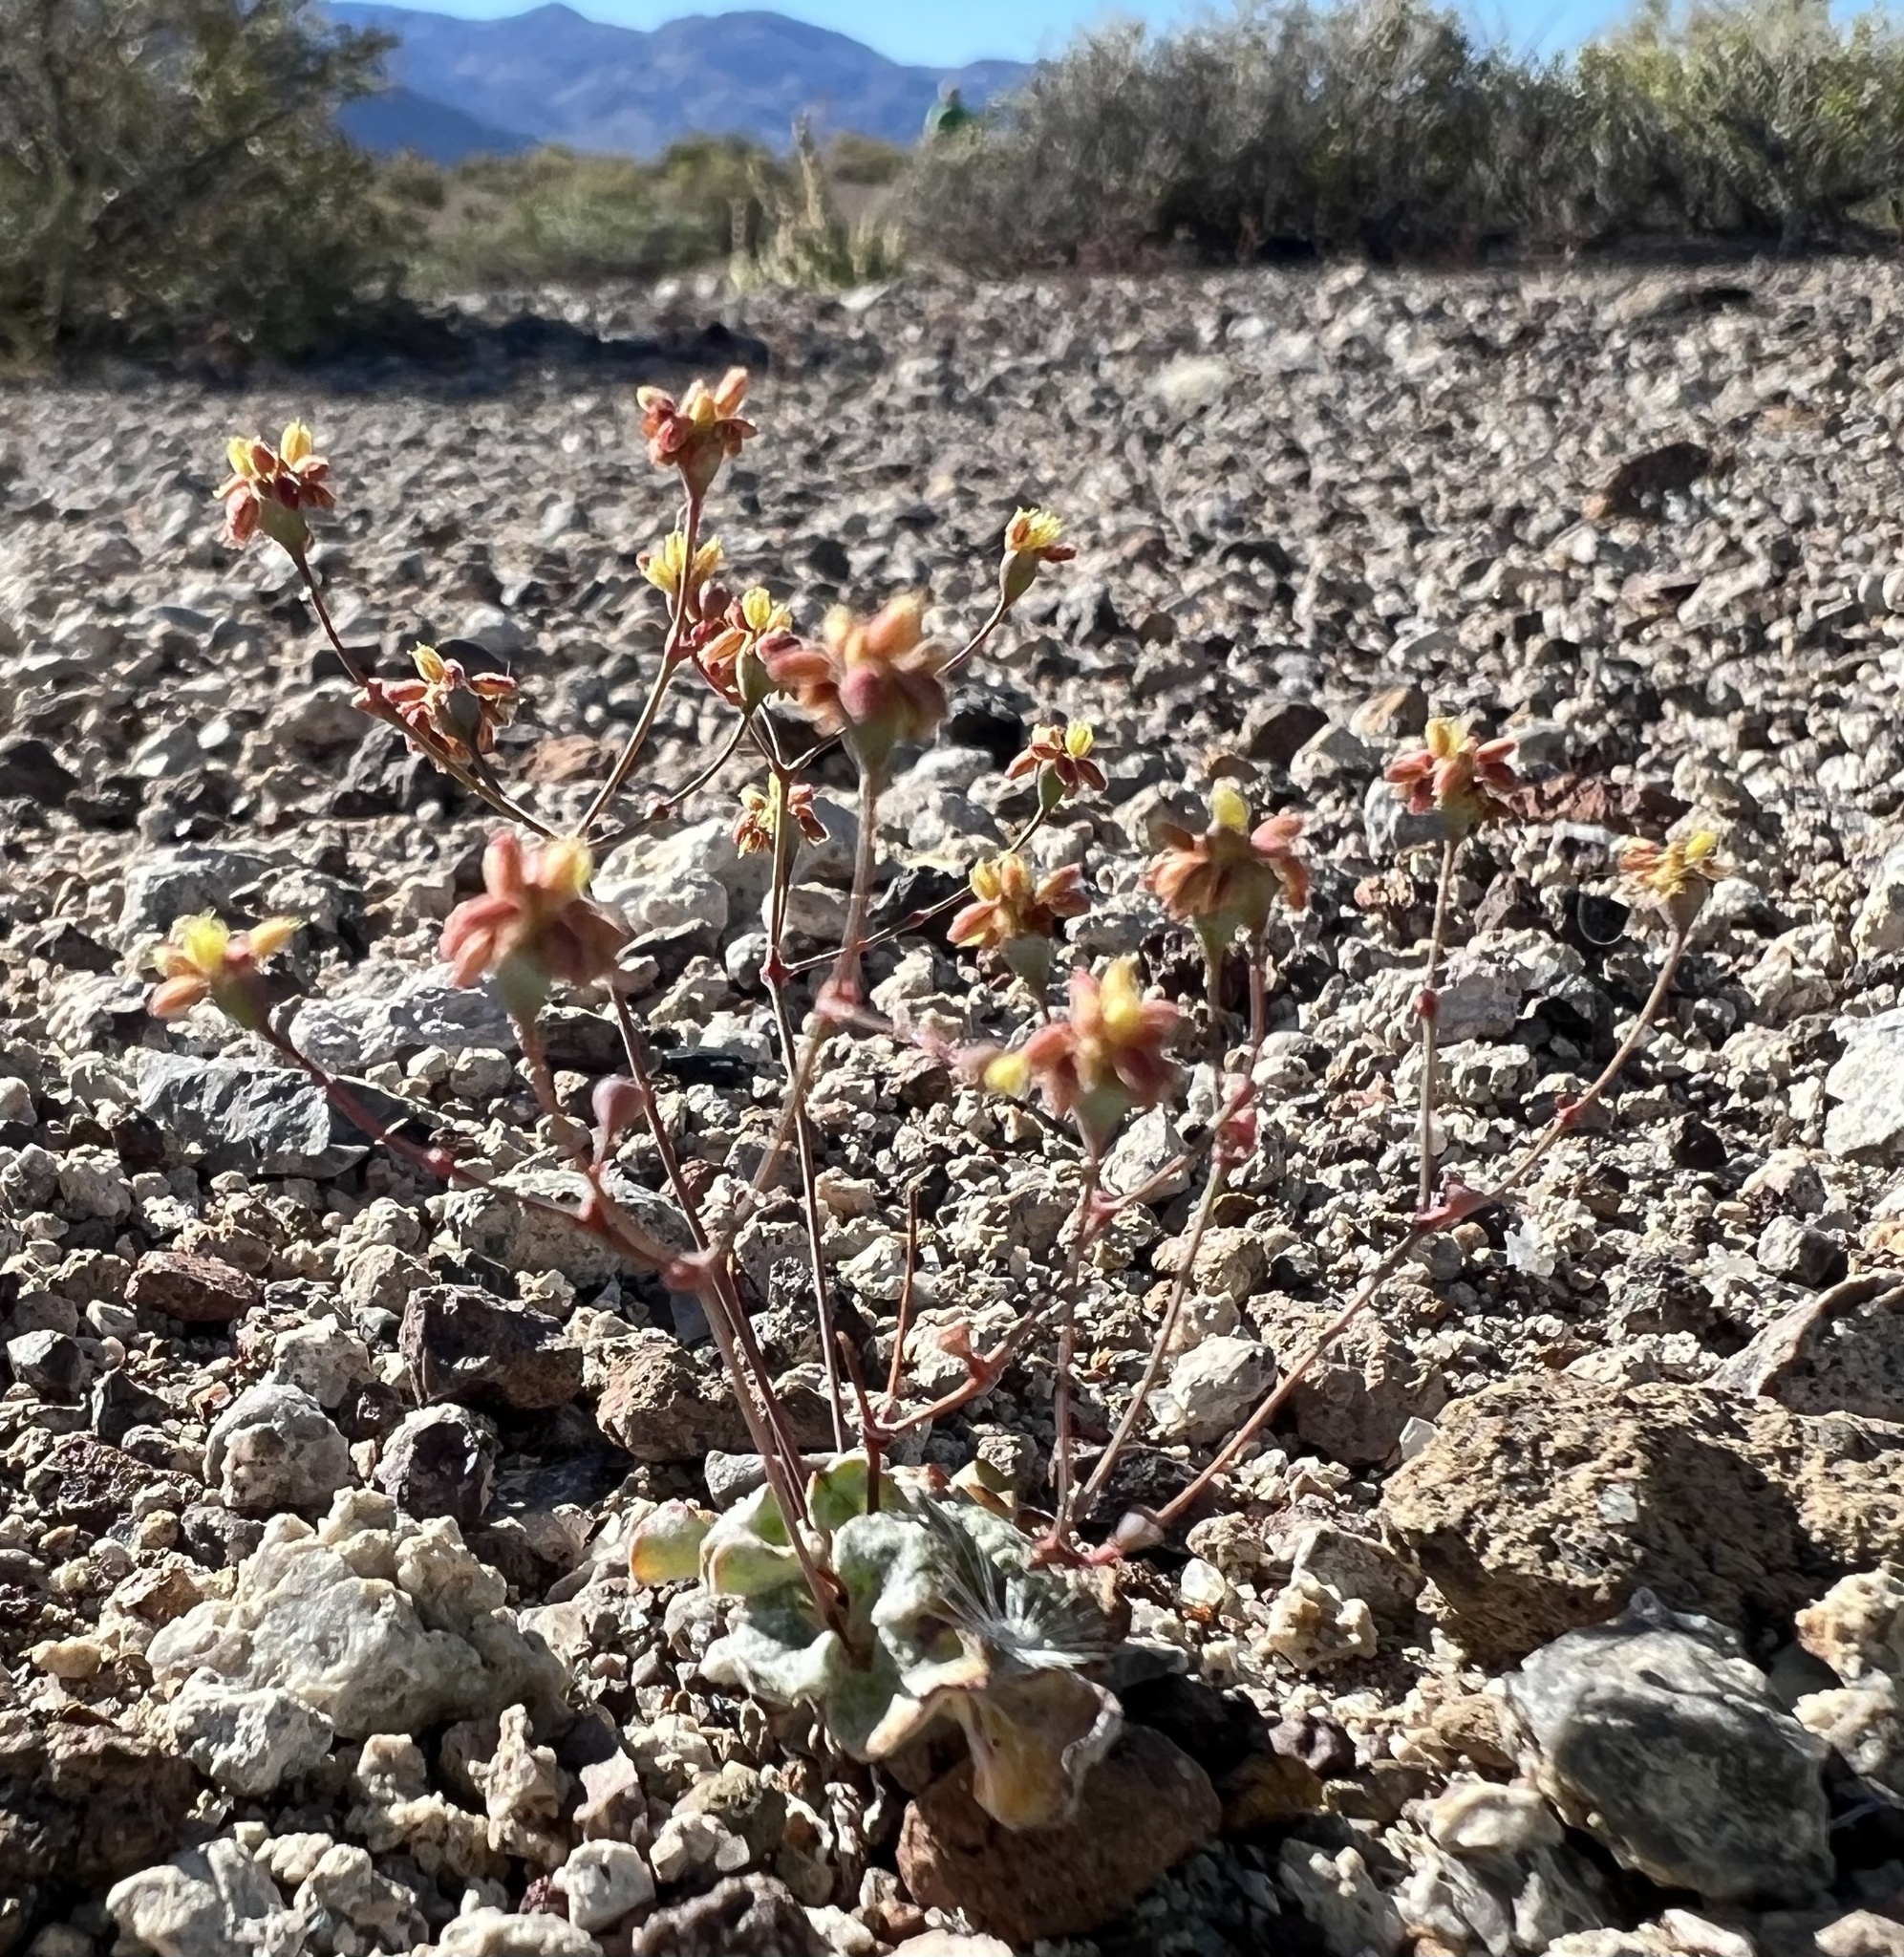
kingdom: Plantae
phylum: Tracheophyta
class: Magnoliopsida
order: Caryophyllales
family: Polygonaceae
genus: Eriogonum
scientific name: Eriogonum pusillum
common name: Yellow turbans
